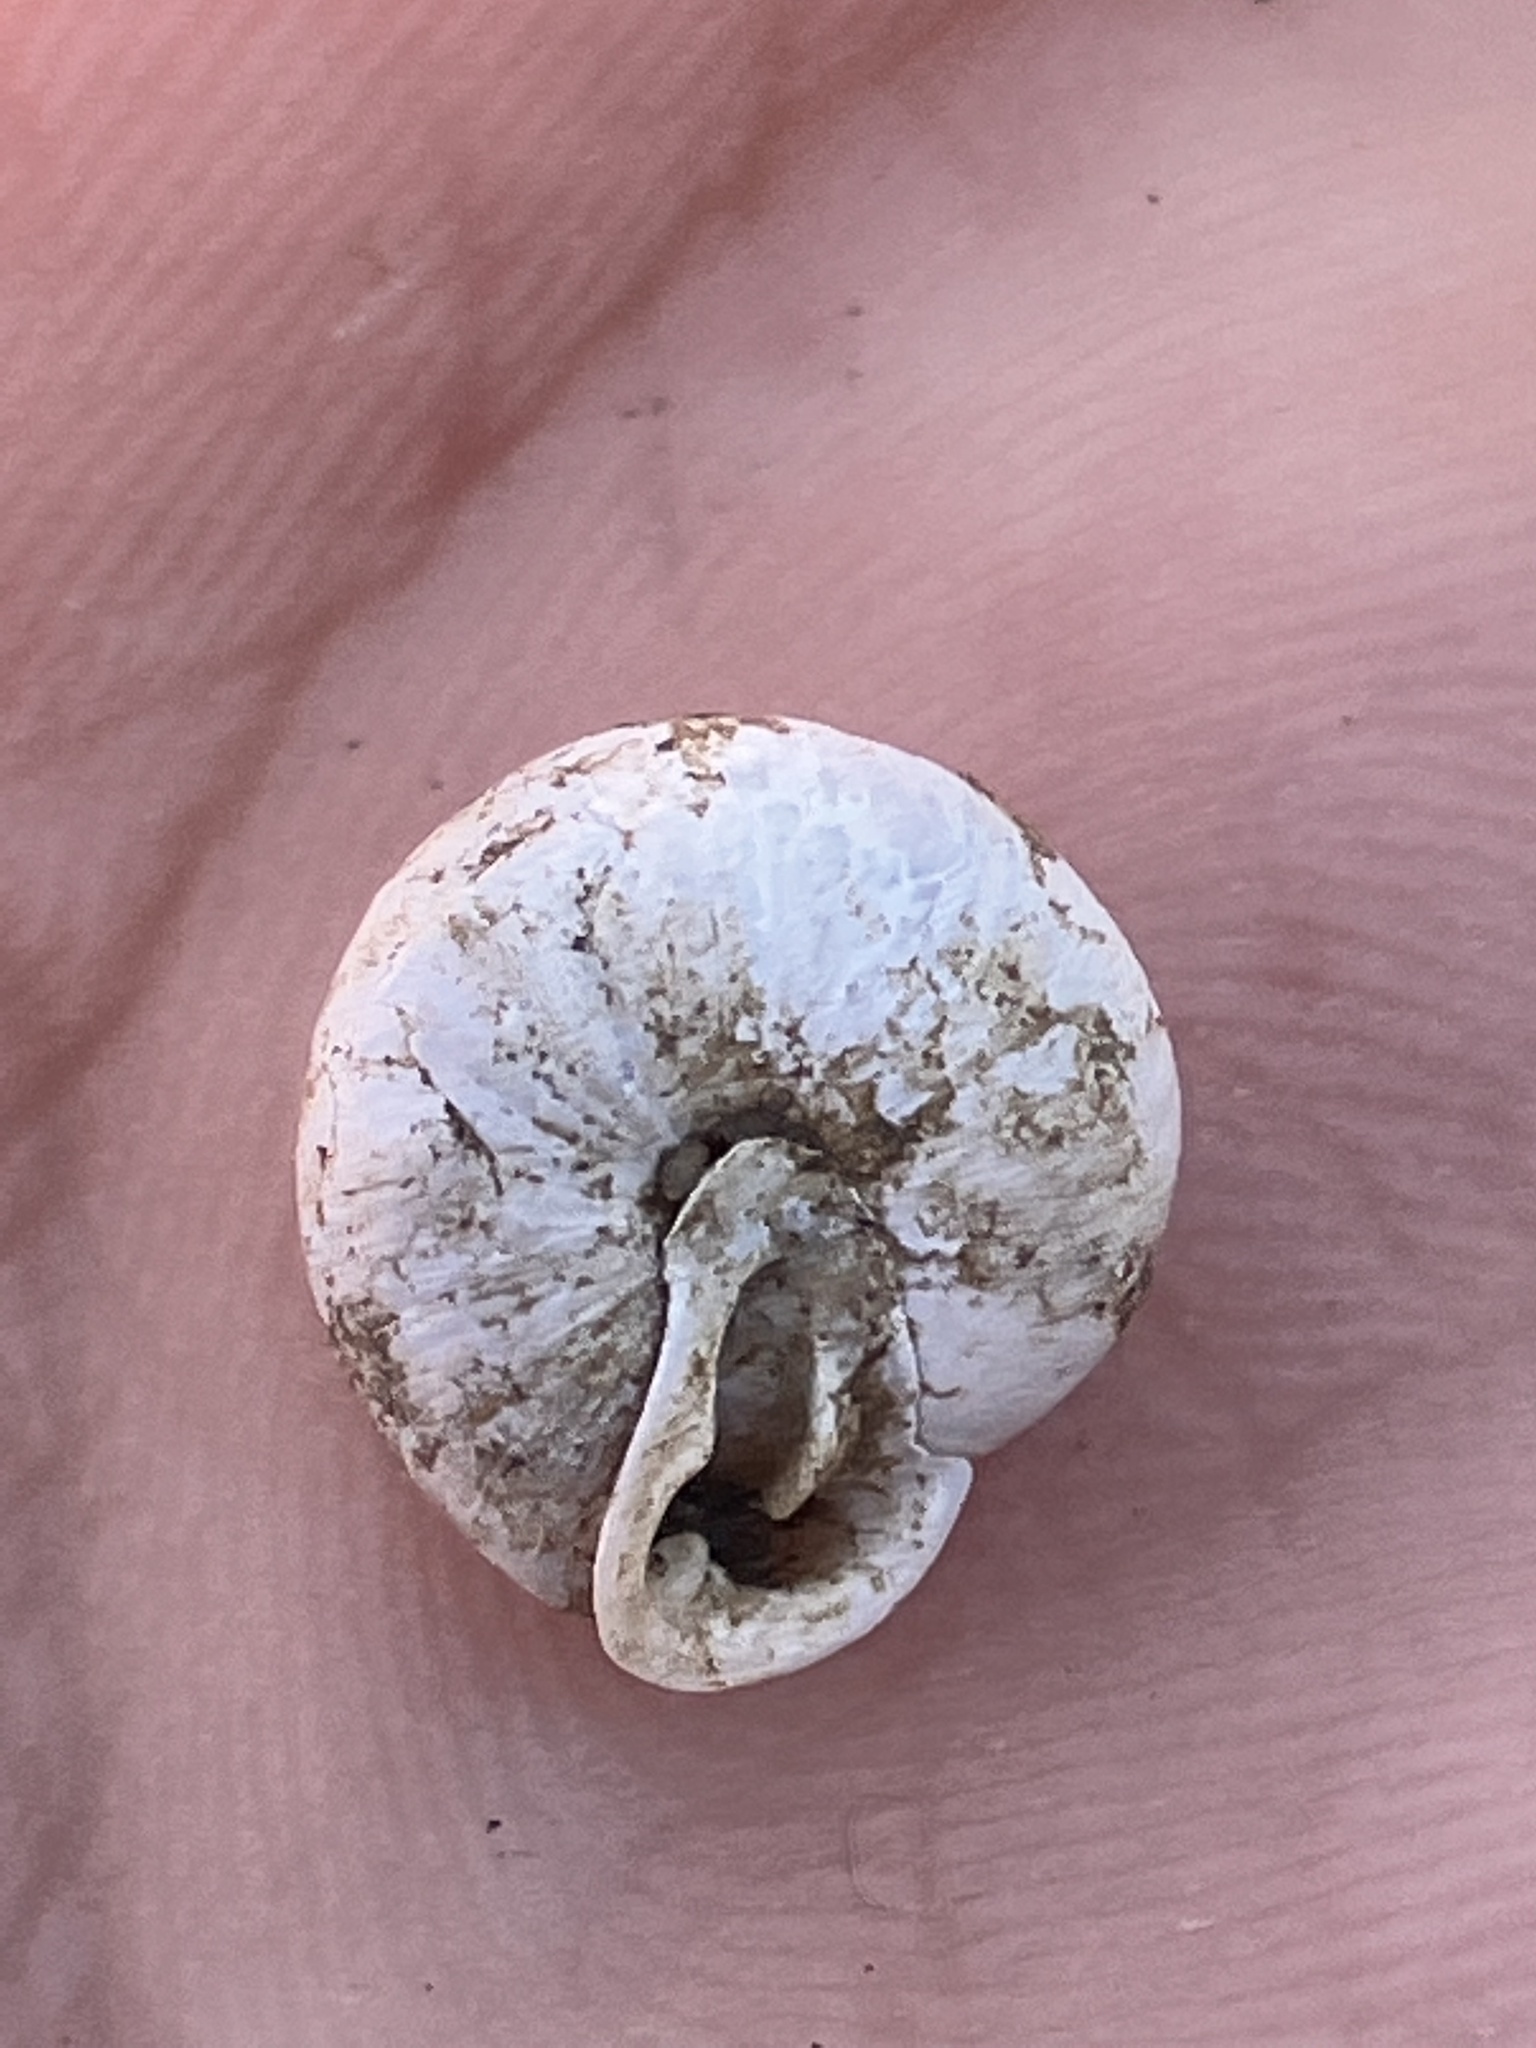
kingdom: Animalia
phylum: Mollusca
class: Gastropoda
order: Stylommatophora
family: Polygyridae
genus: Inflectarius
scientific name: Inflectarius rugeli
